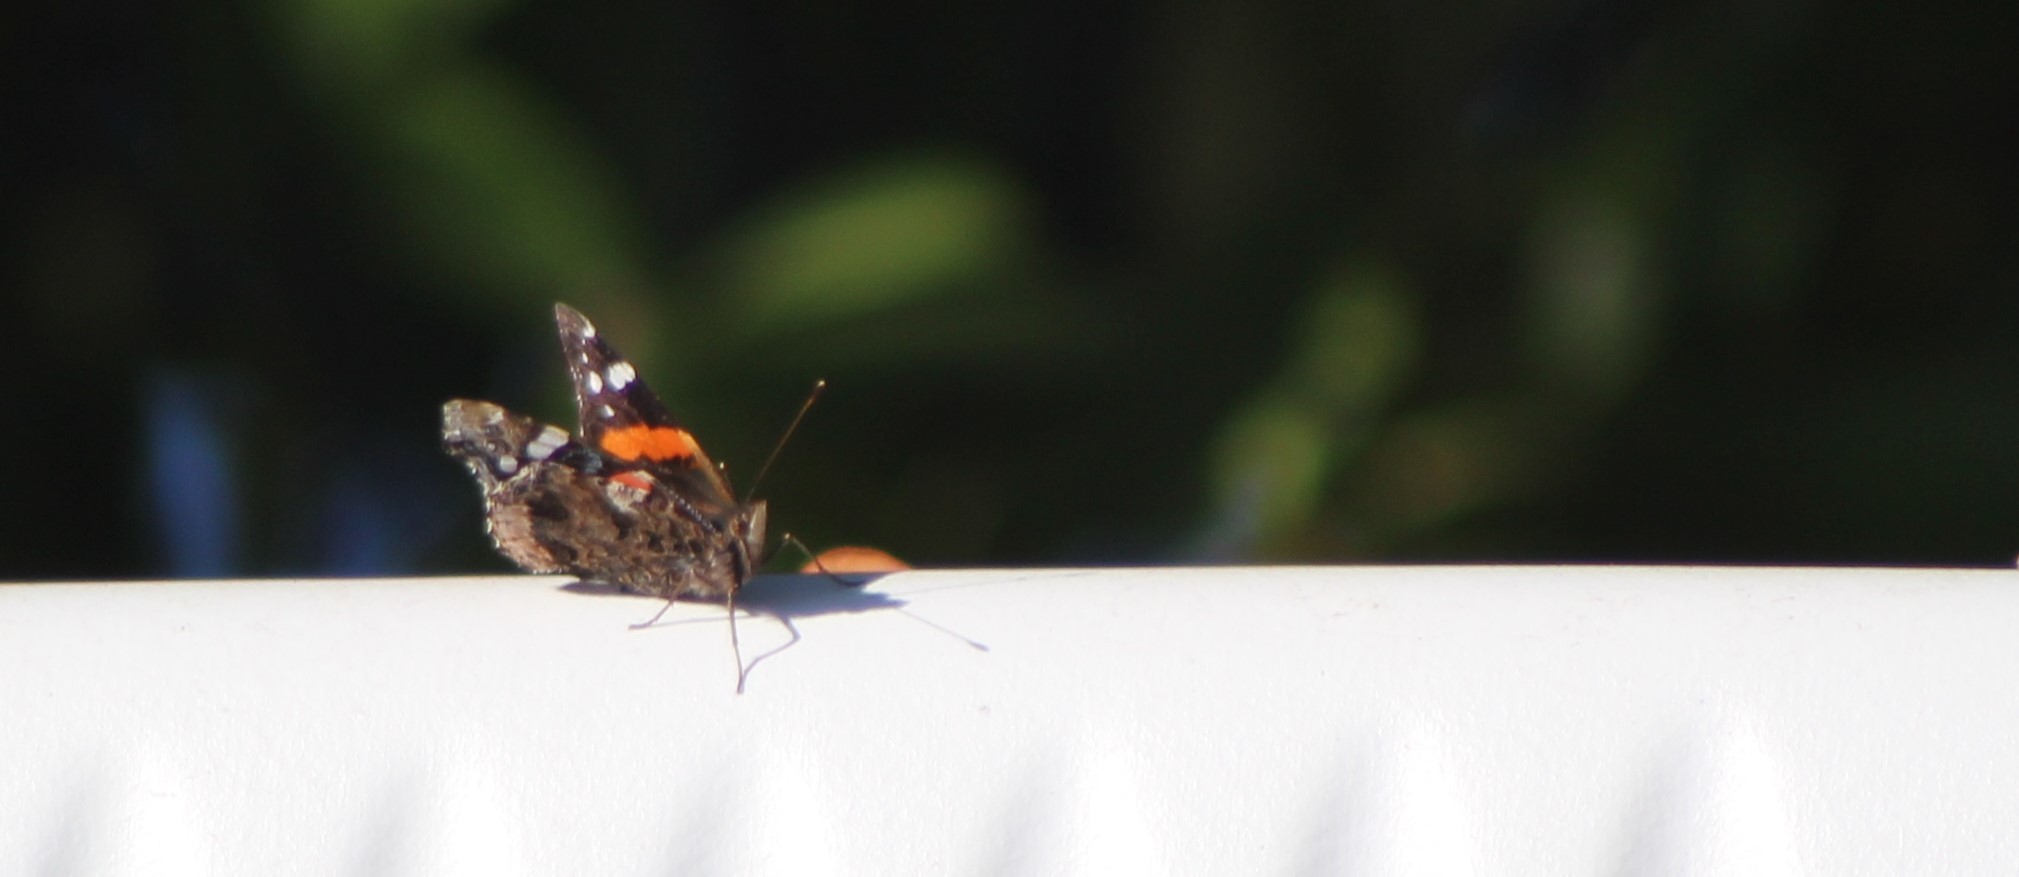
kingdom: Animalia
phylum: Arthropoda
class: Insecta
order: Lepidoptera
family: Nymphalidae
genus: Vanessa
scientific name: Vanessa atalanta
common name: Red admiral
